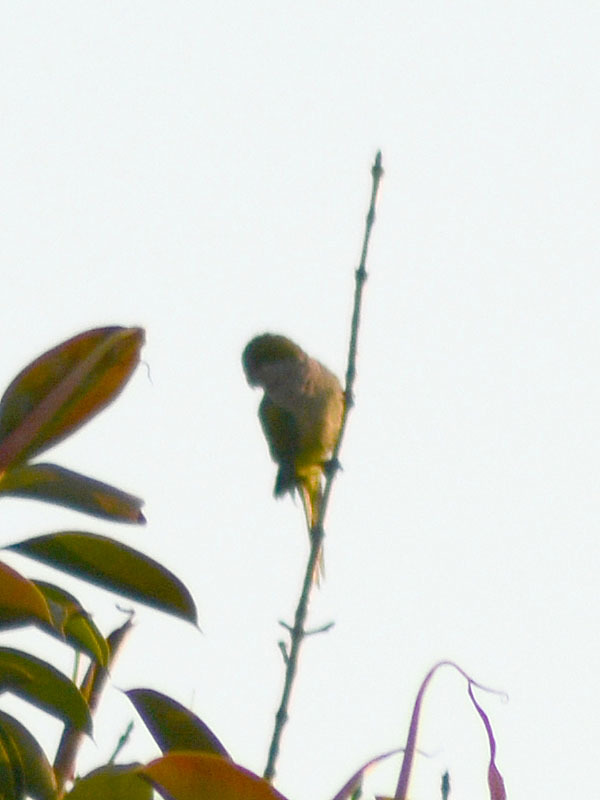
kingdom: Animalia
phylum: Chordata
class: Aves
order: Psittaciformes
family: Psittacidae
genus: Myiopsitta
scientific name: Myiopsitta monachus
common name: Monk parakeet
